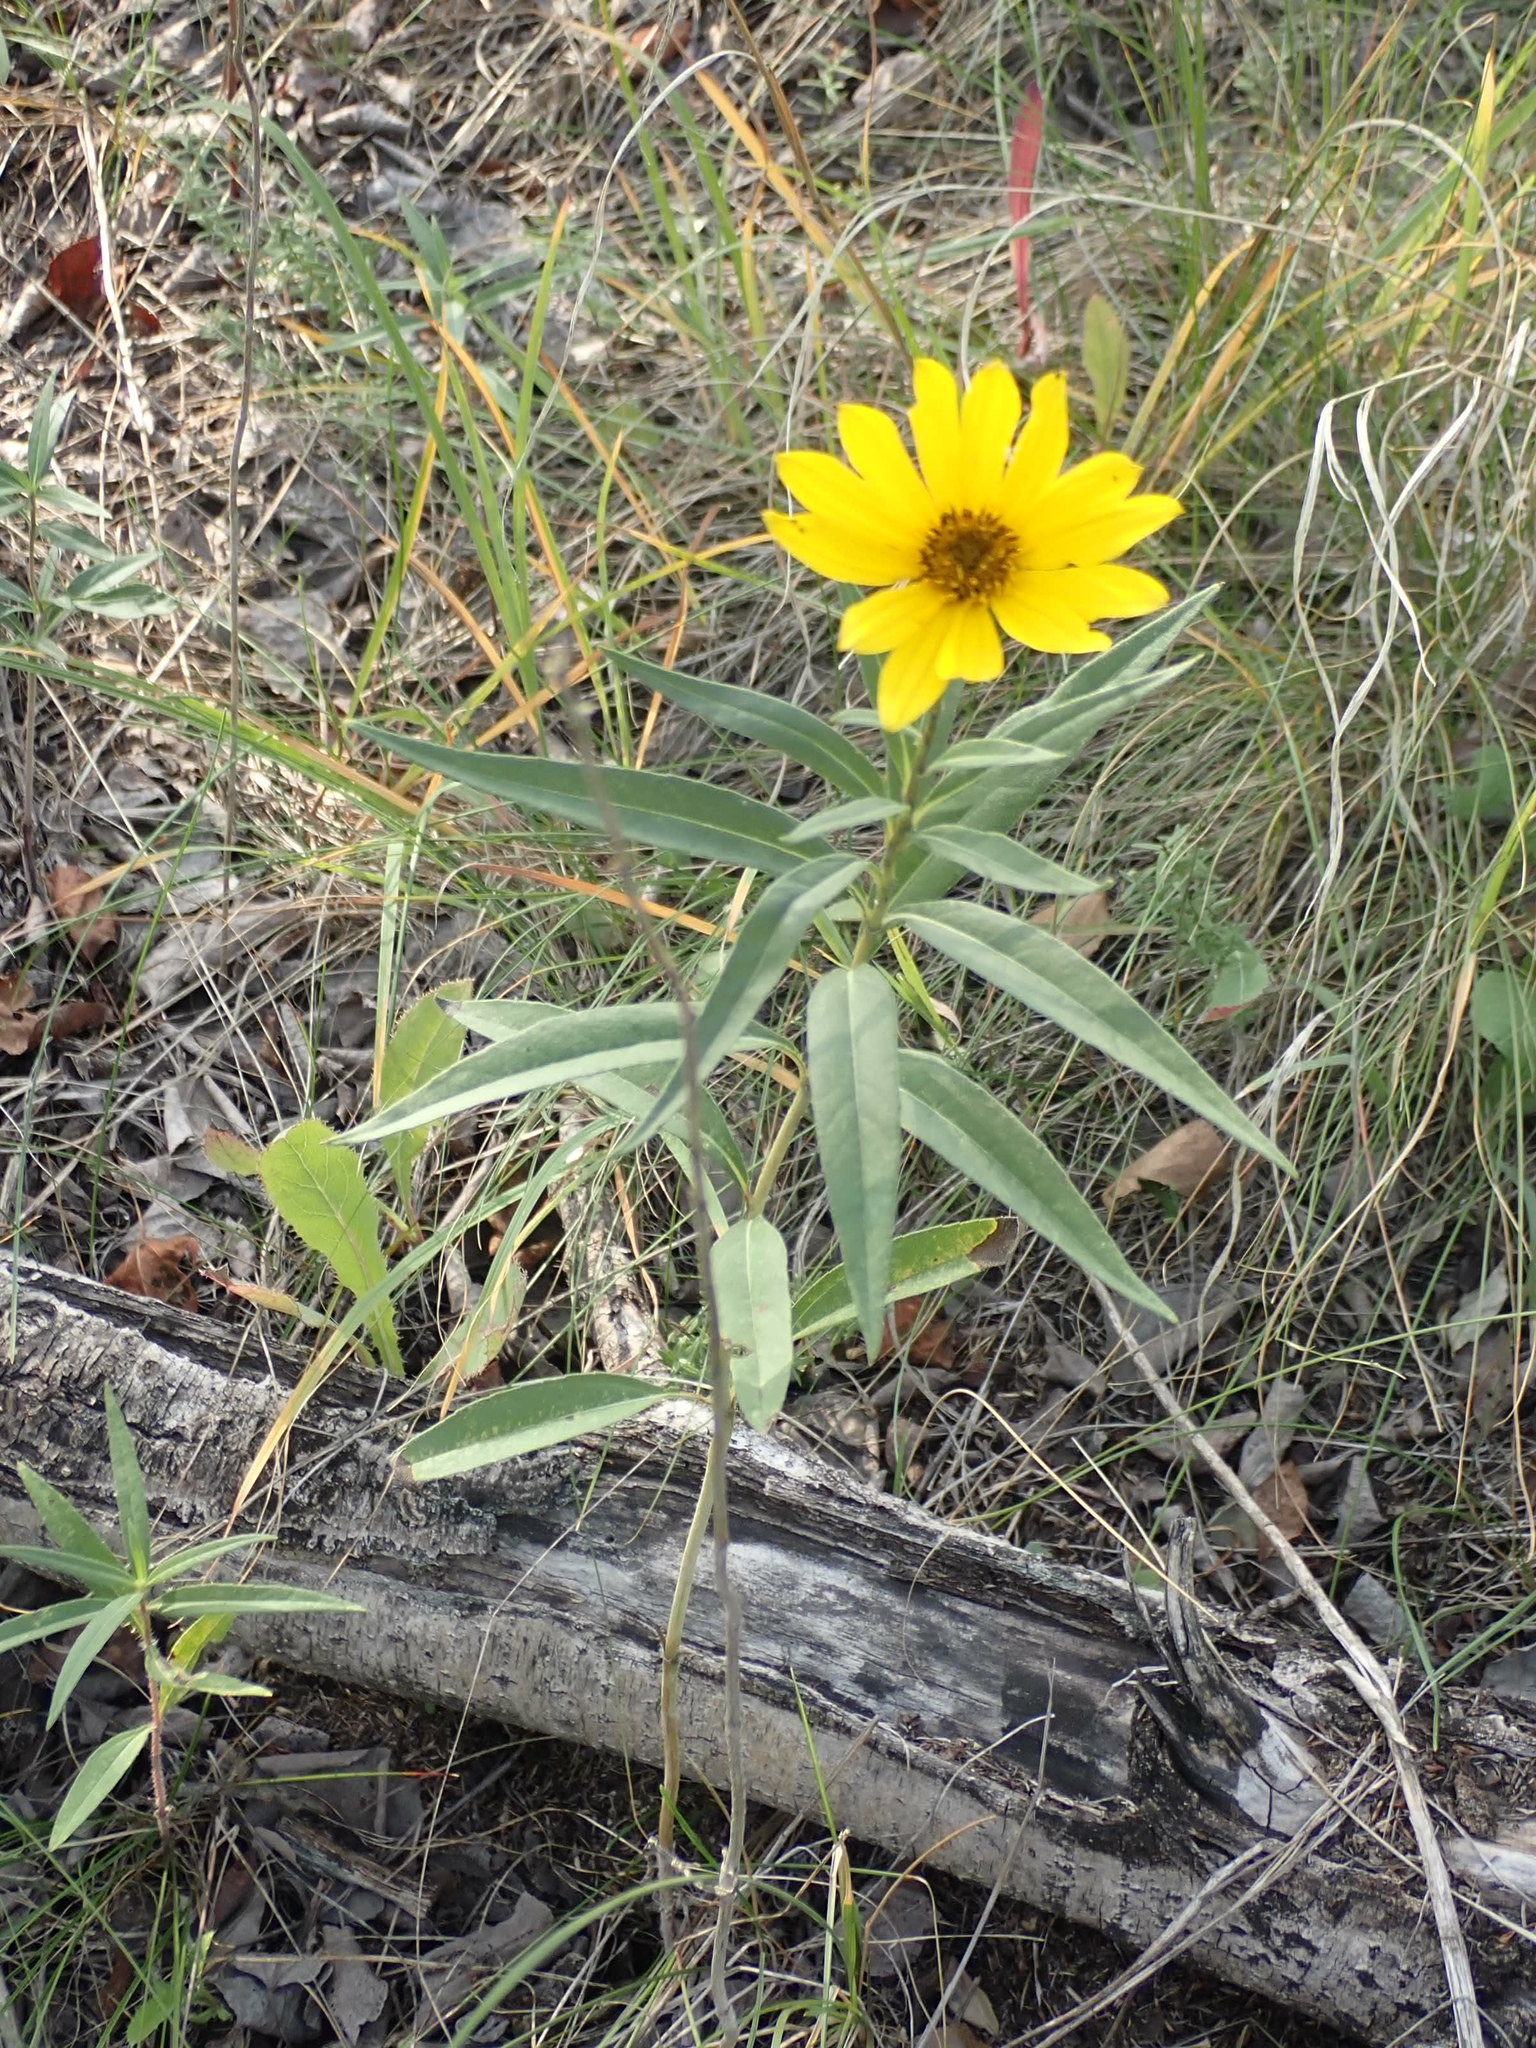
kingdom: Plantae
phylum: Tracheophyta
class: Magnoliopsida
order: Asterales
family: Asteraceae
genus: Helianthus
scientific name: Helianthus maximiliani
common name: Maximilian's sunflower
